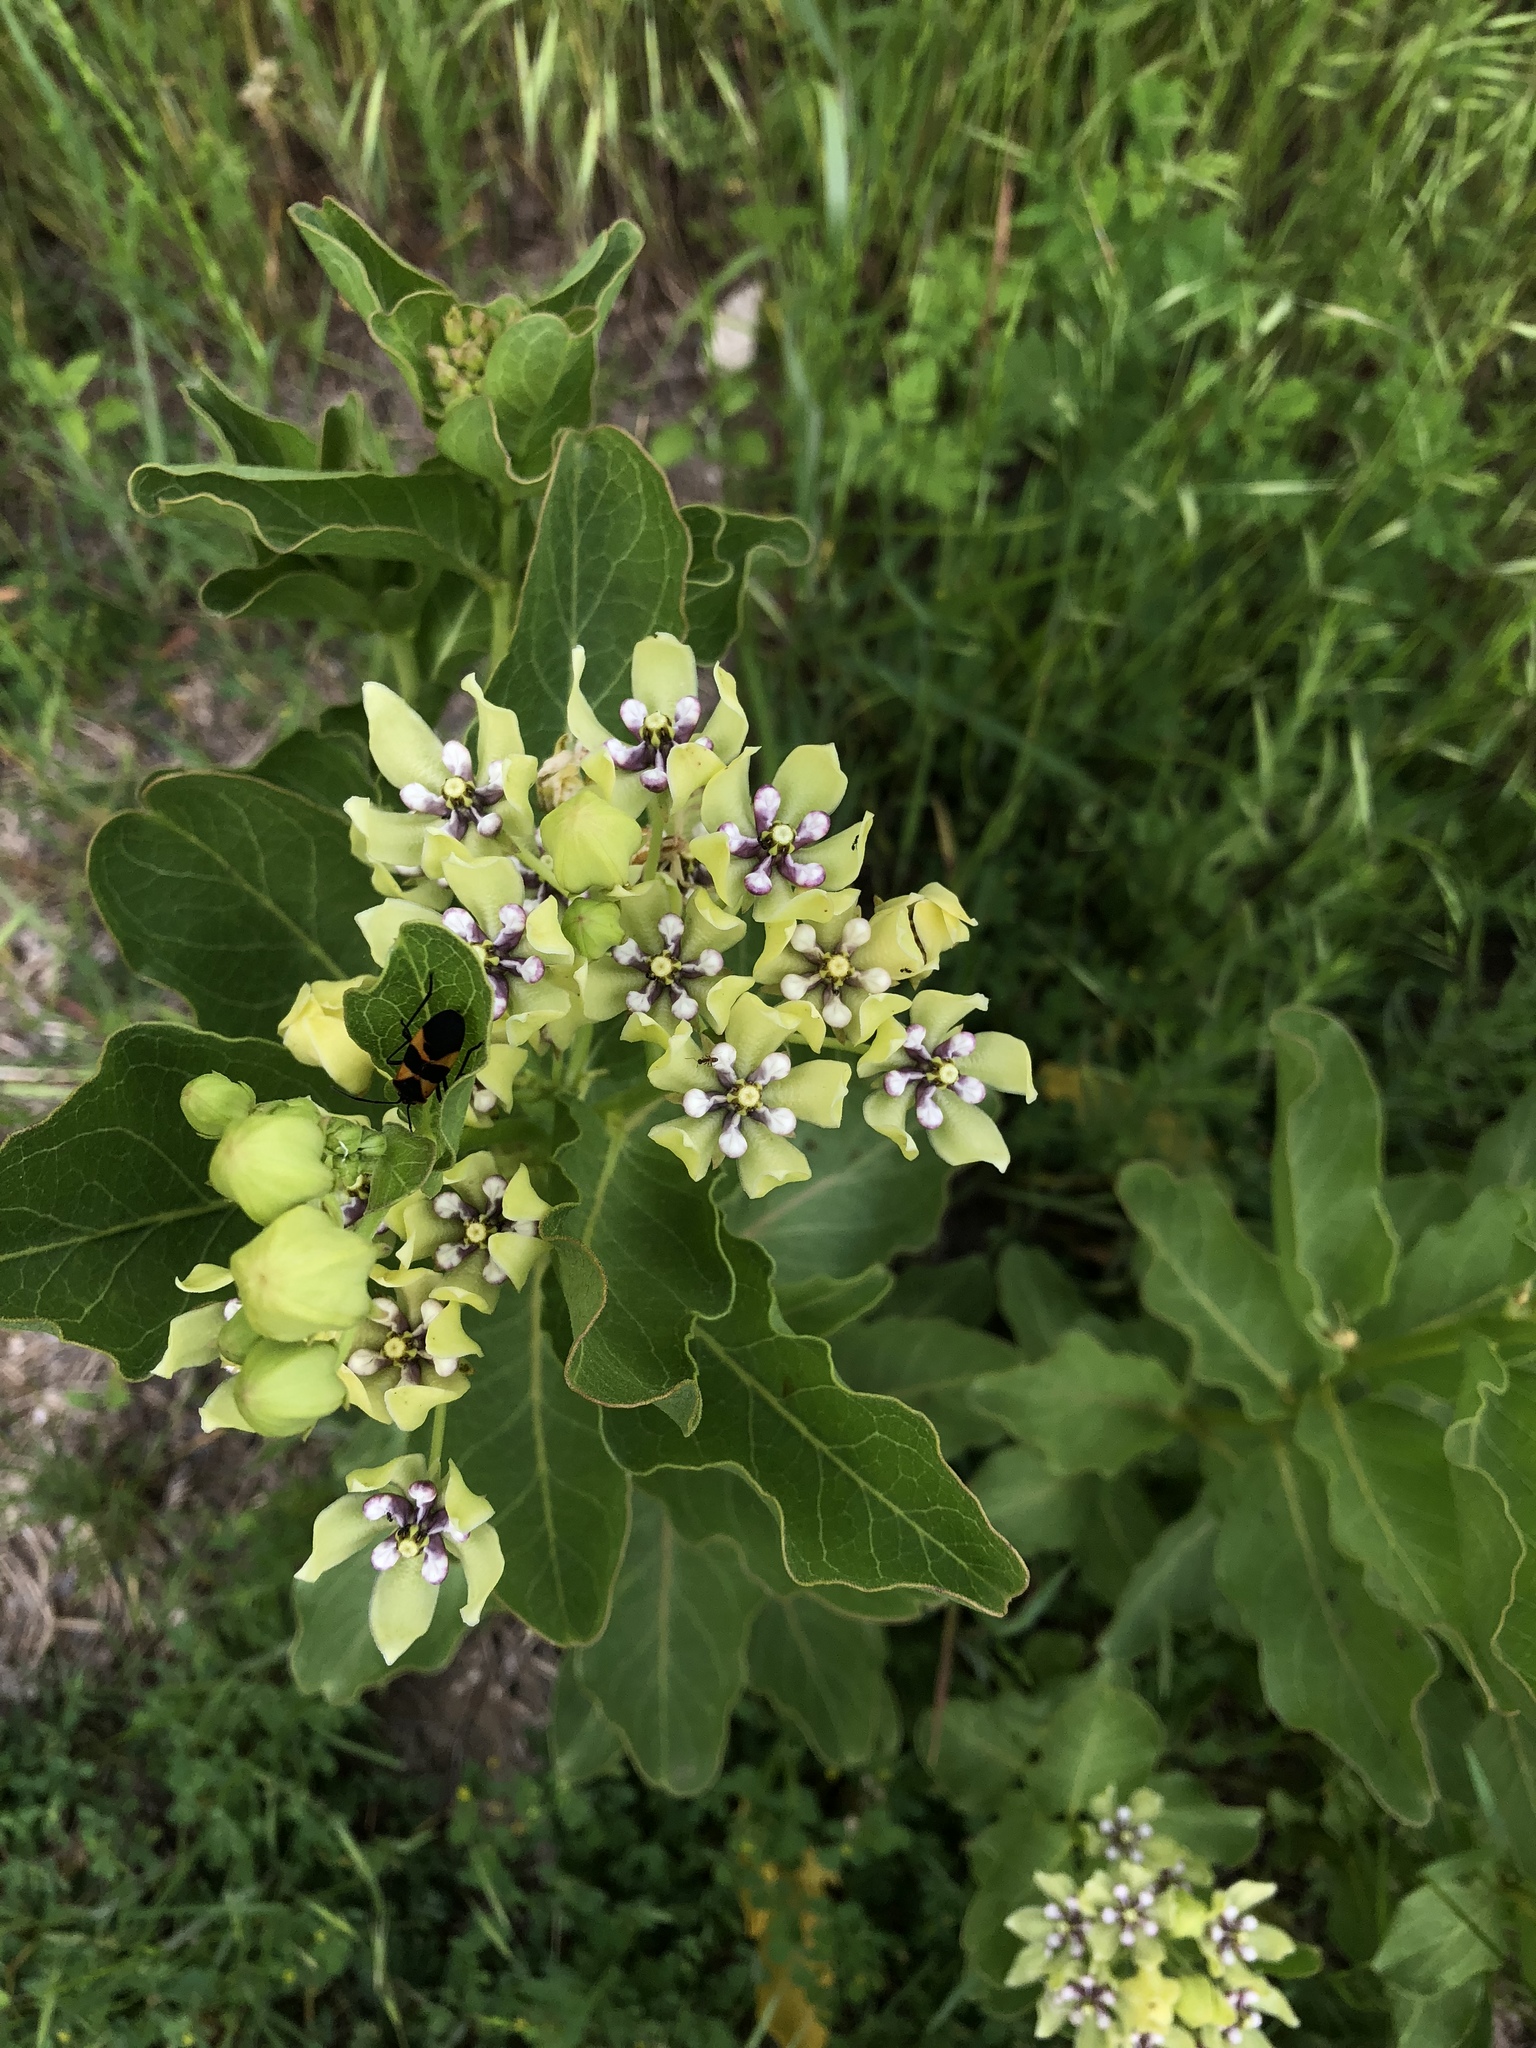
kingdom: Plantae
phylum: Tracheophyta
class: Magnoliopsida
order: Gentianales
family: Apocynaceae
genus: Asclepias
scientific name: Asclepias viridis
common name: Antelope-horns
